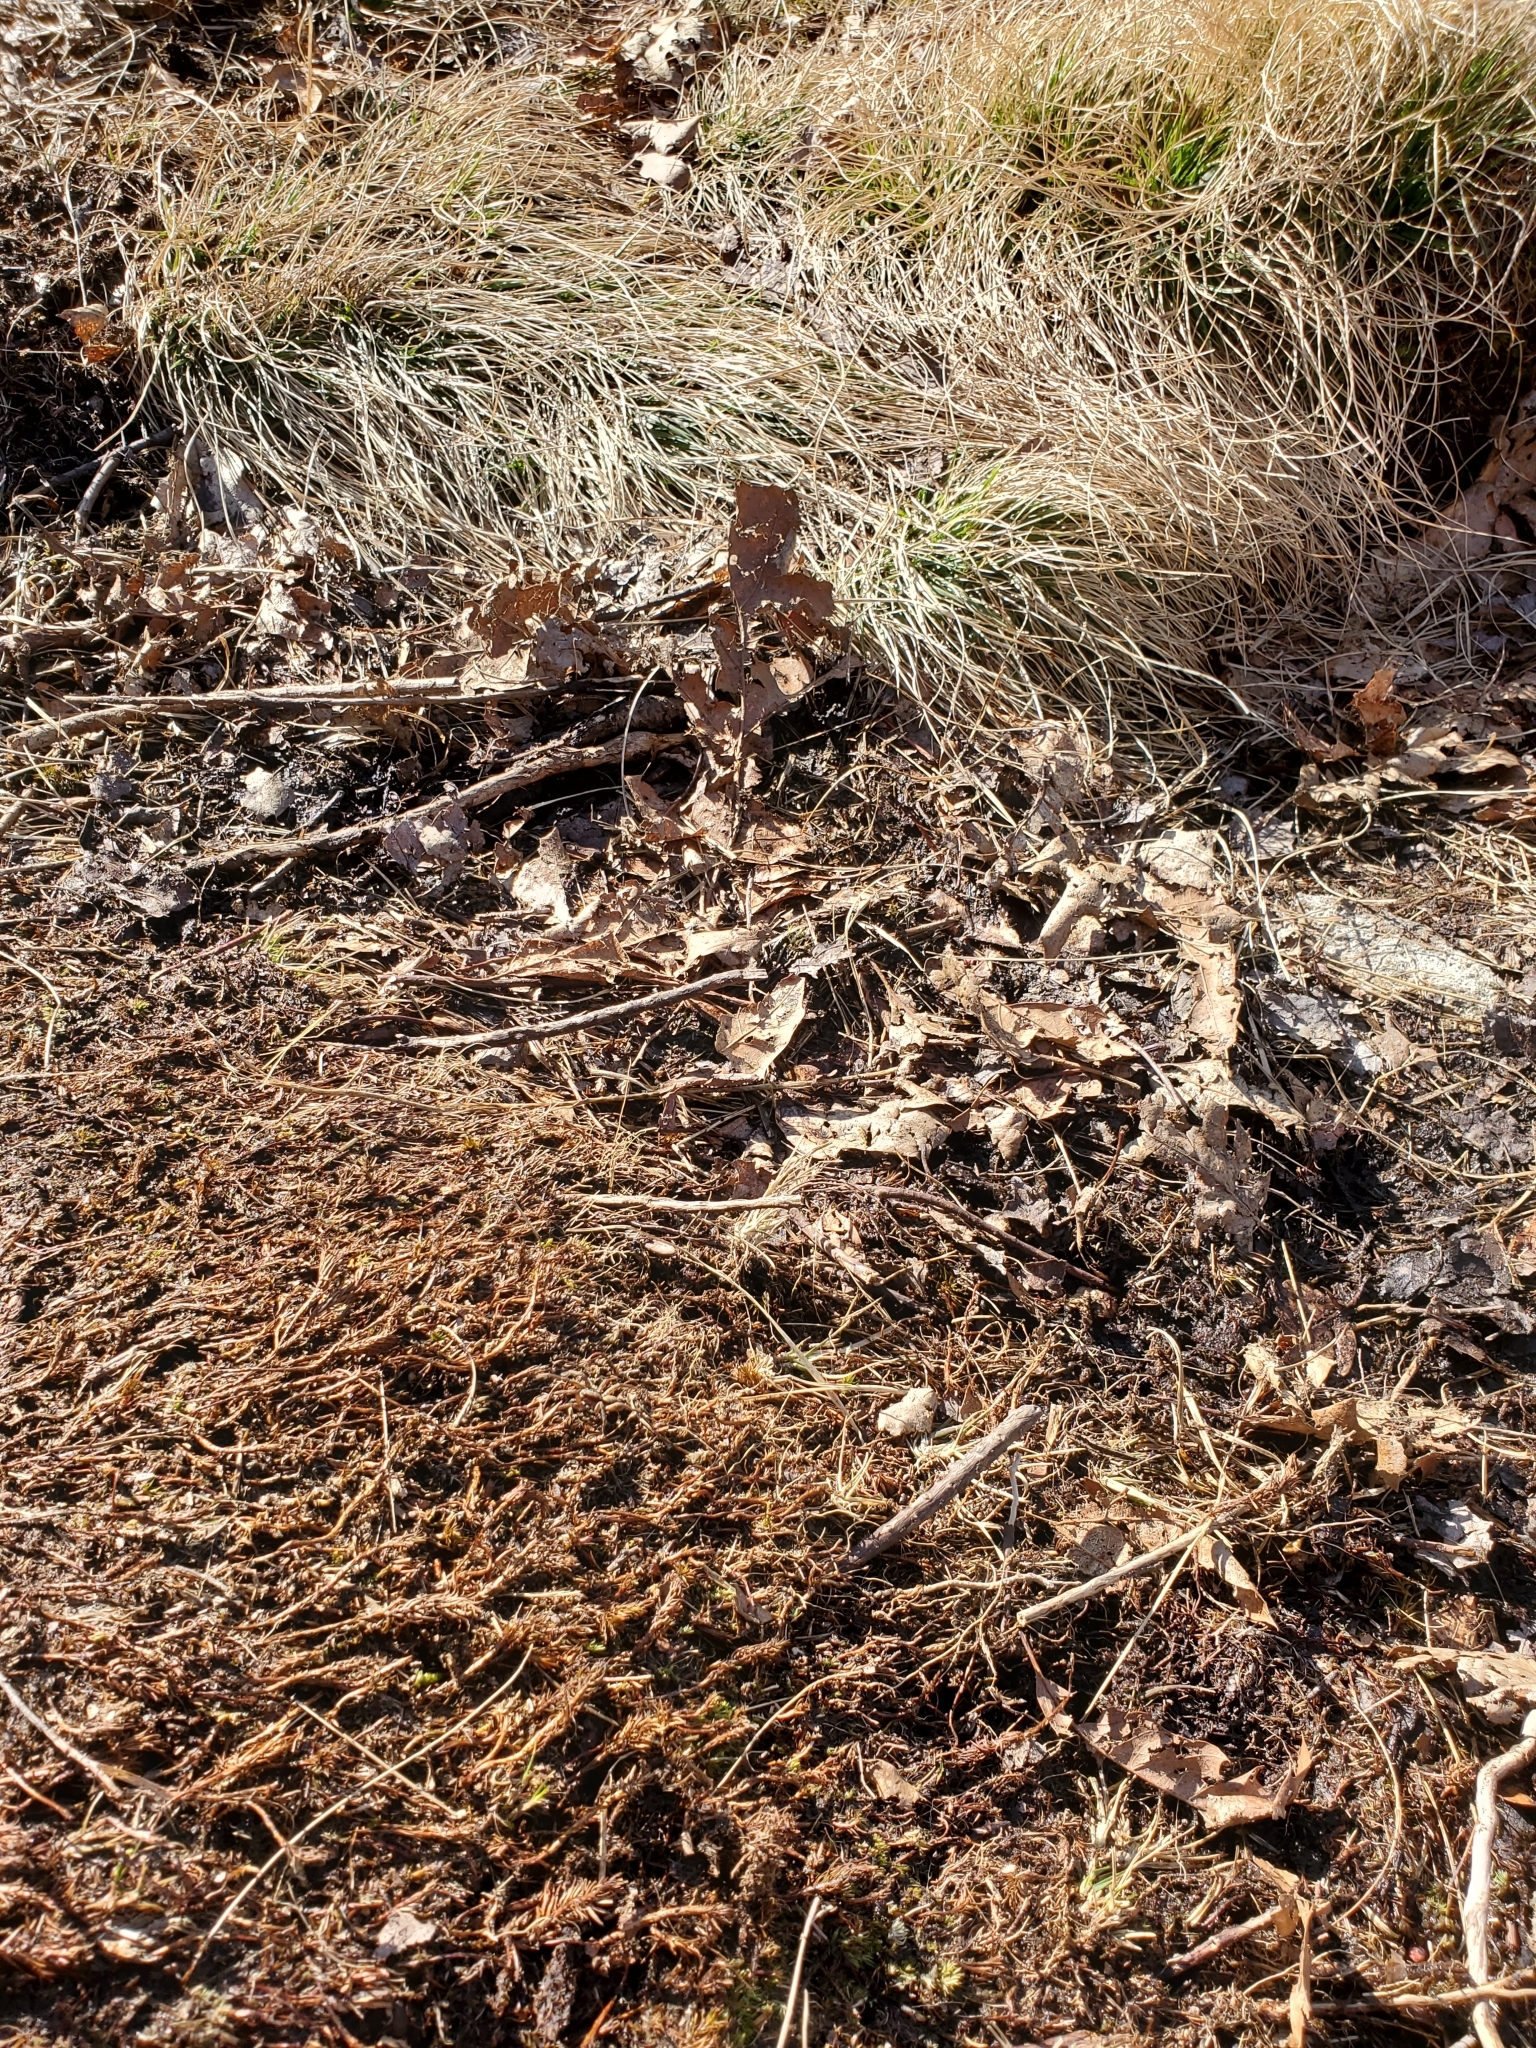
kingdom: Animalia
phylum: Arthropoda
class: Arachnida
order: Araneae
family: Lycosidae
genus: Gladicosa
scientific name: Gladicosa gulosa
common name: Drumming sword wolf spider
